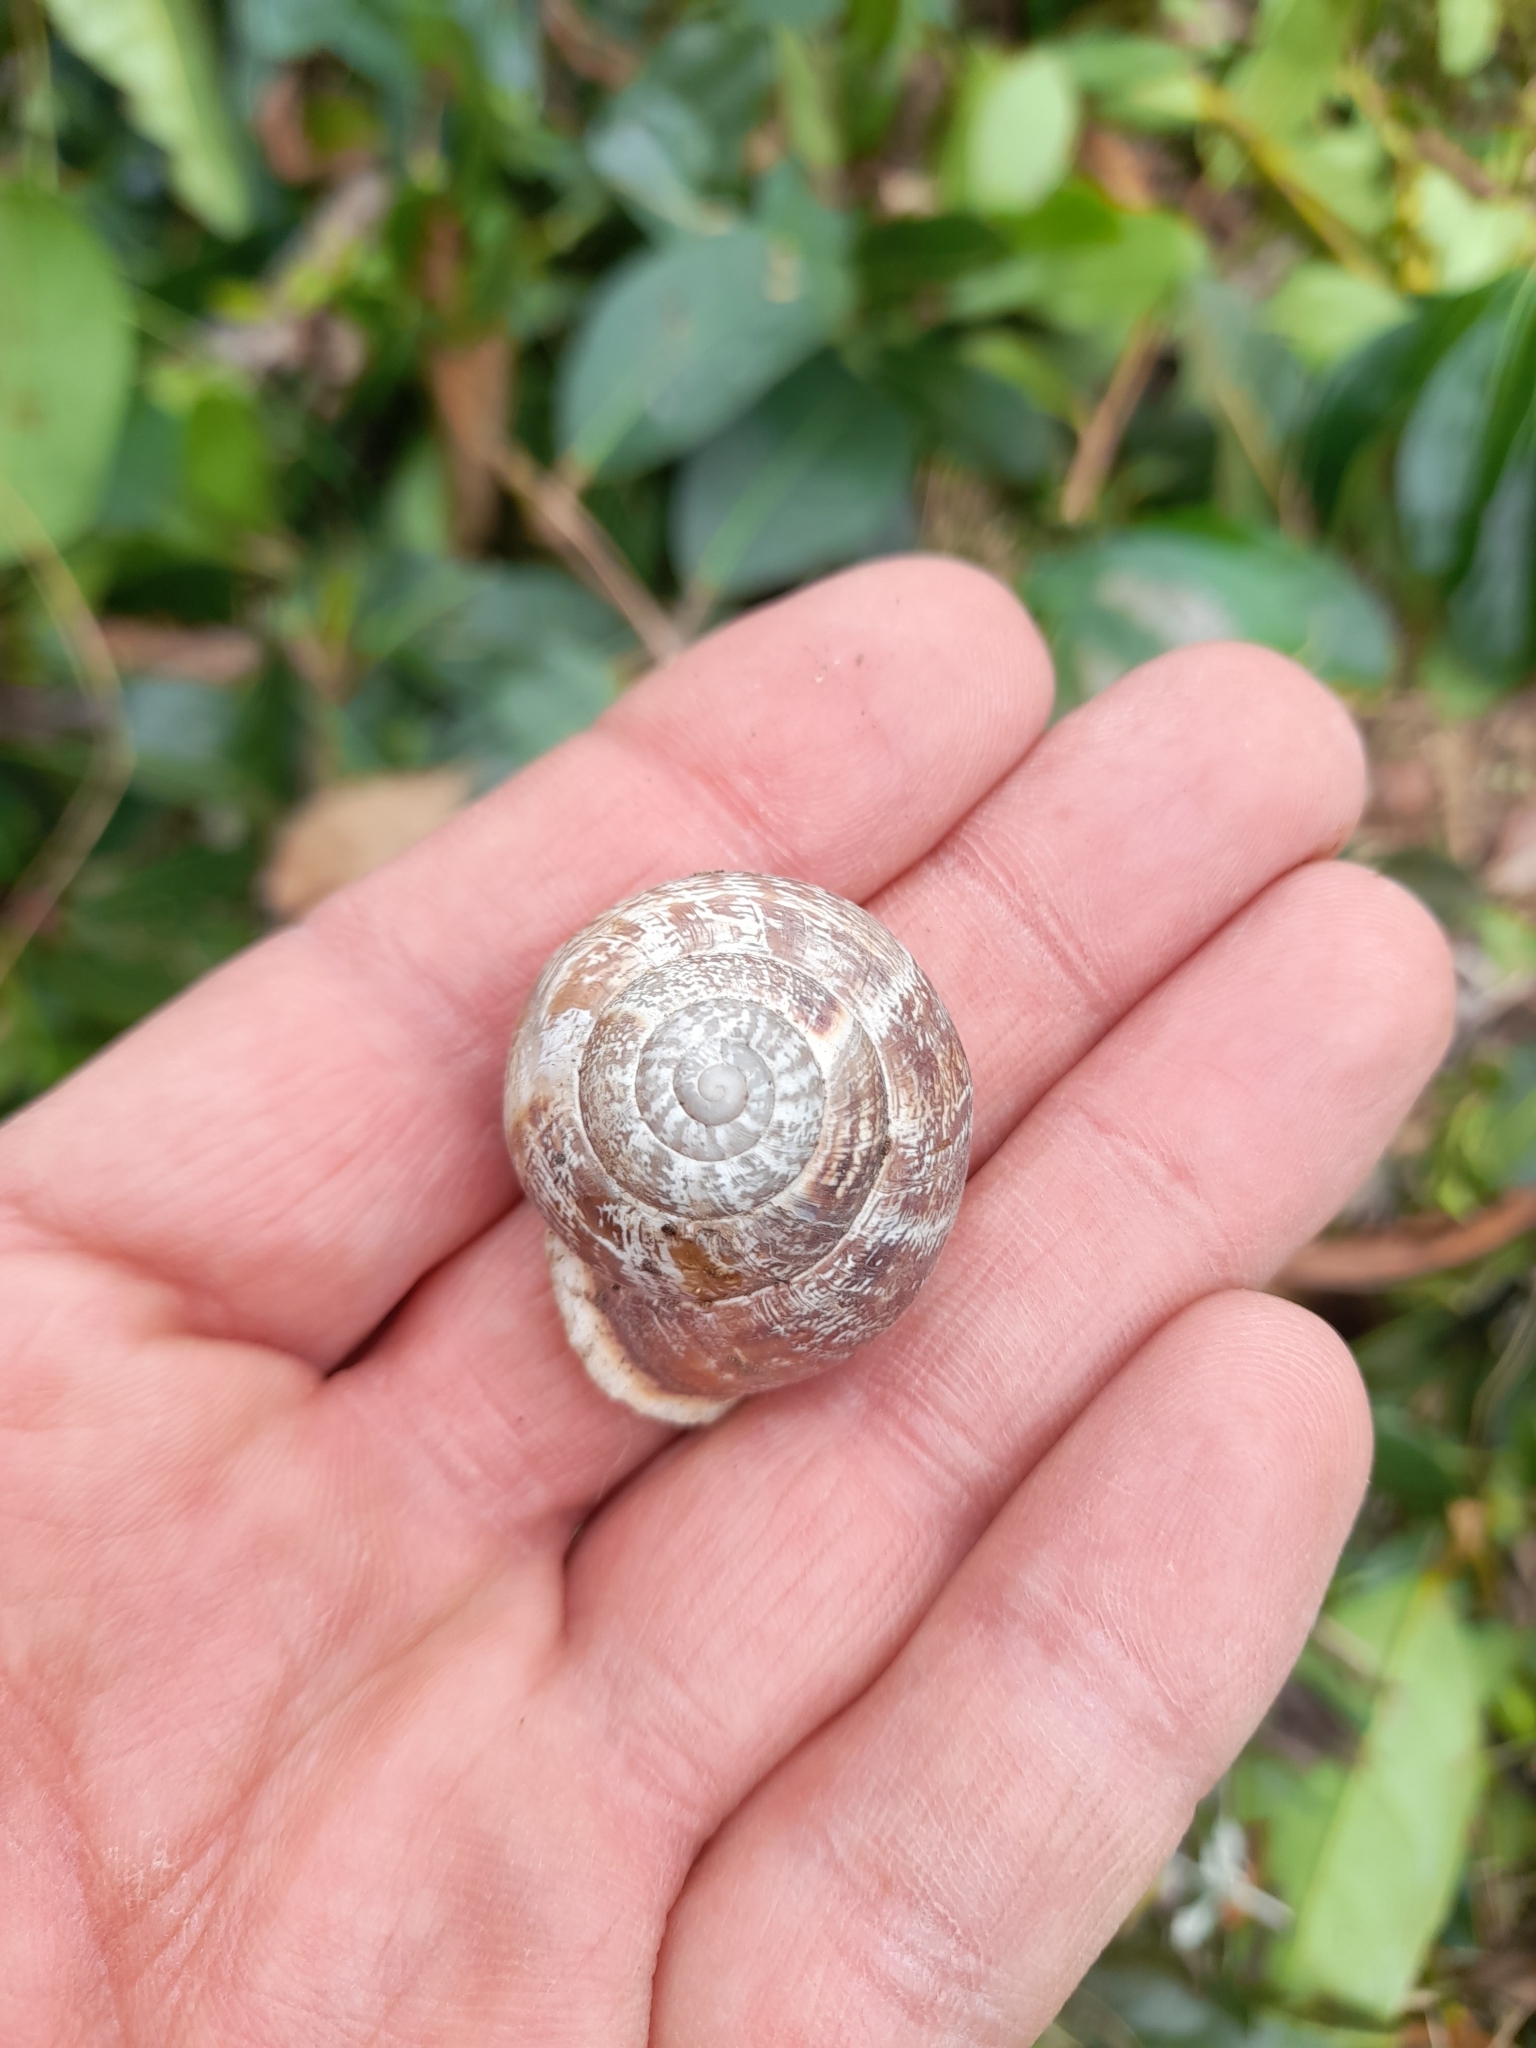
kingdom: Animalia
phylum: Mollusca
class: Gastropoda
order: Stylommatophora
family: Helicidae
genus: Eobania
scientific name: Eobania vermiculata
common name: Chocolateband snail
